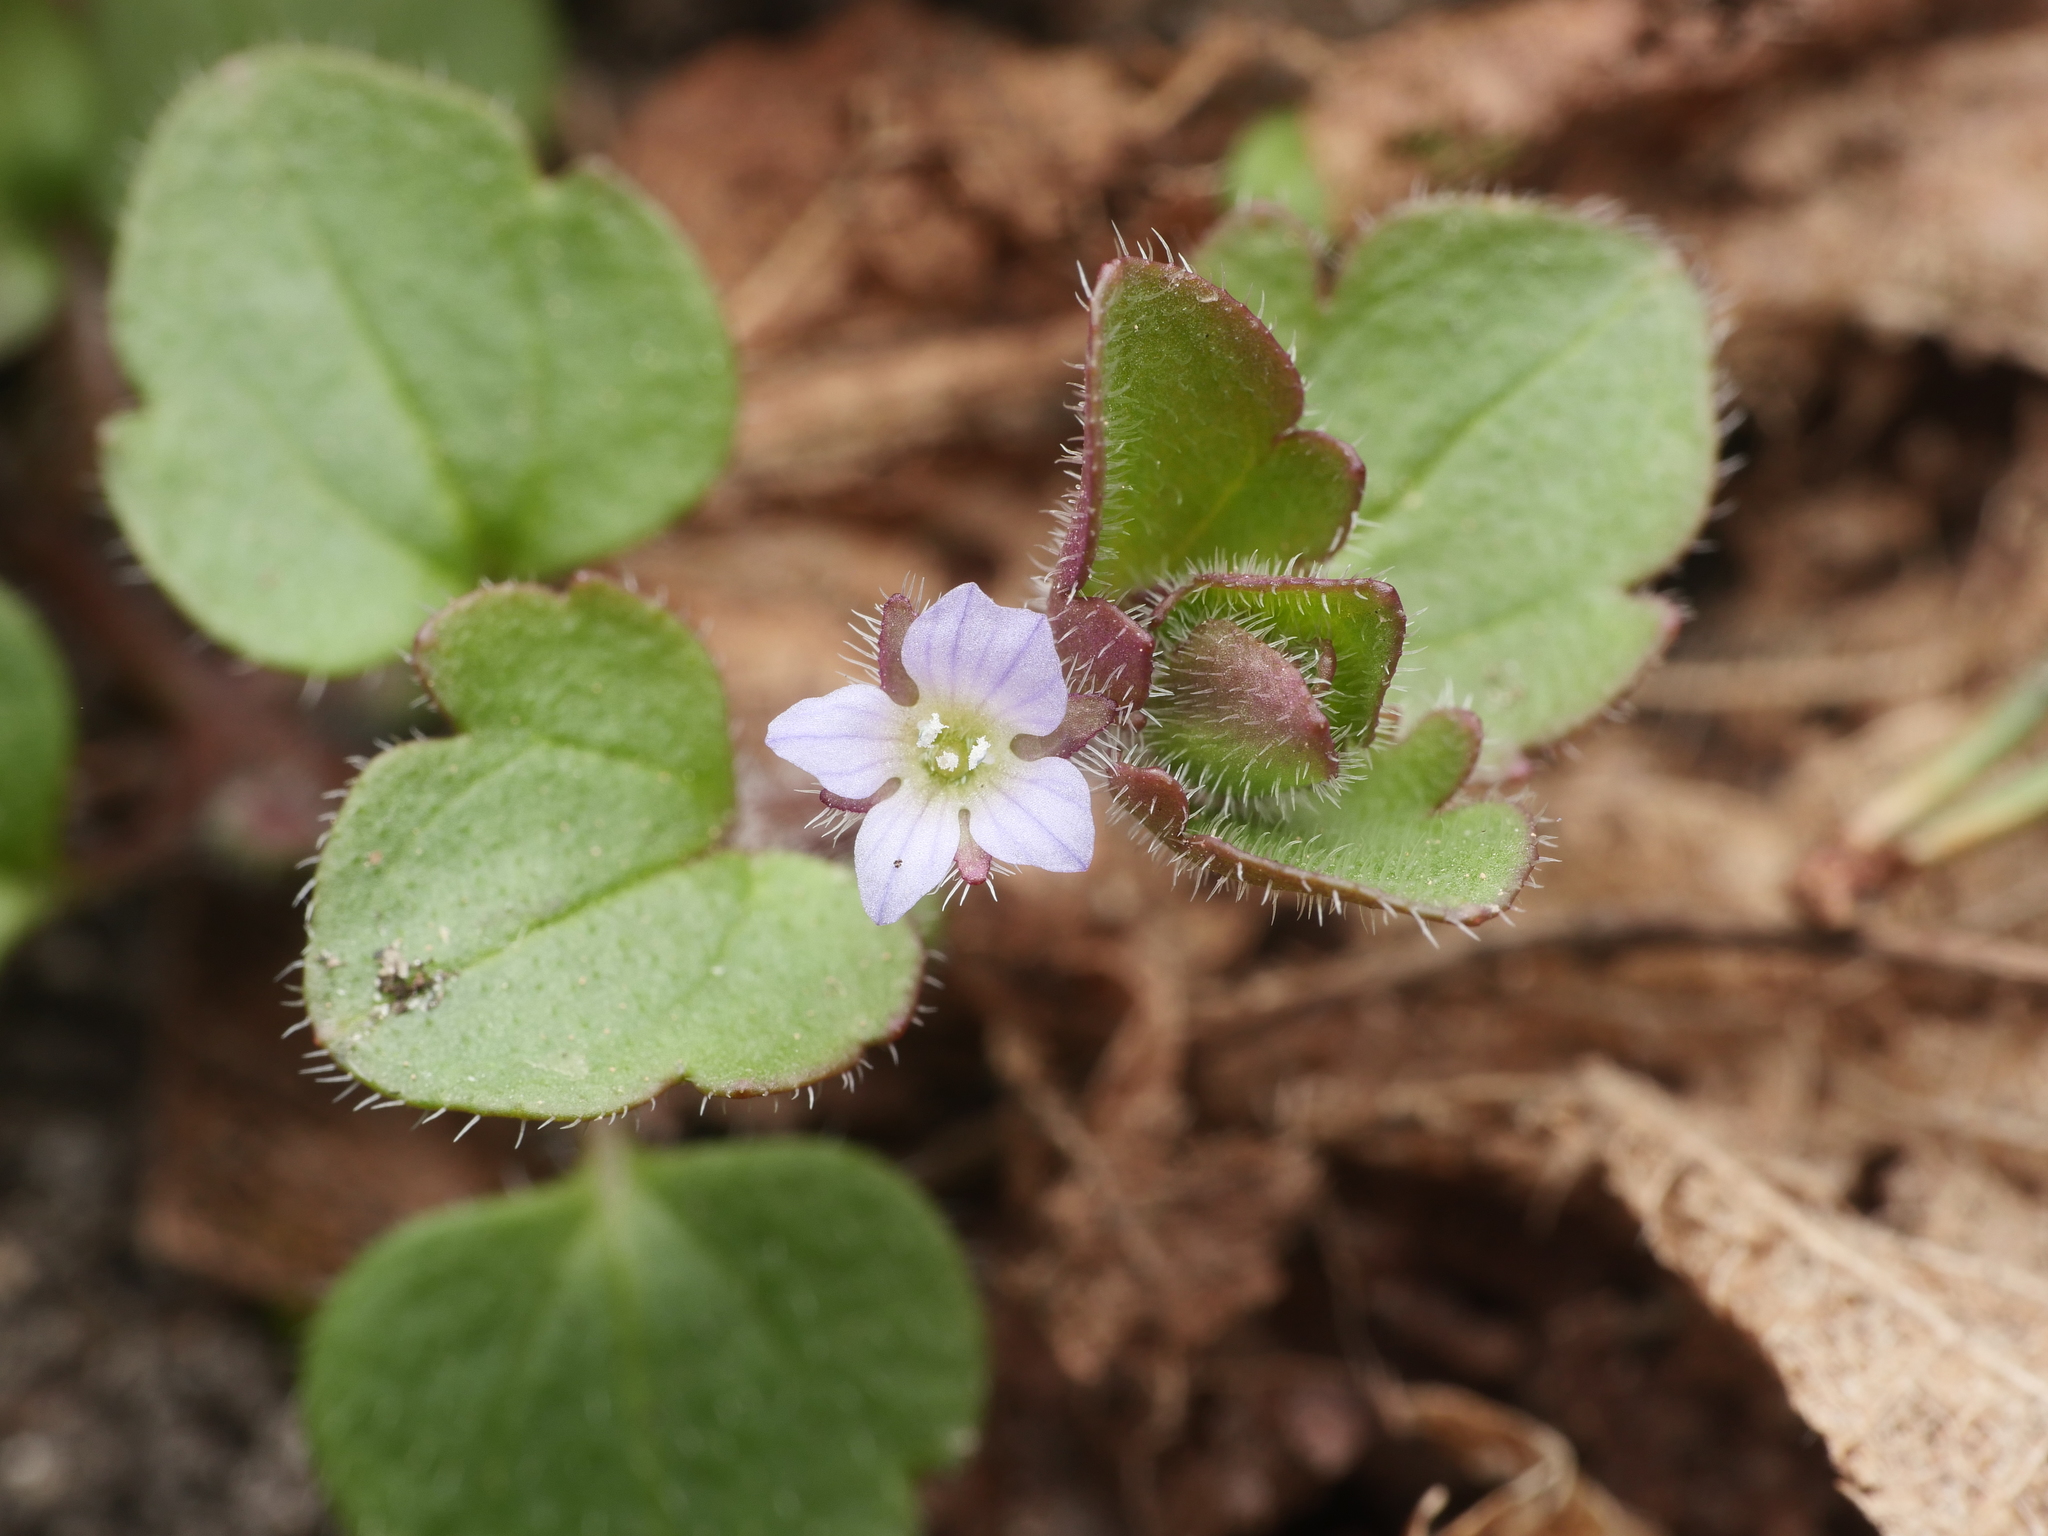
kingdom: Plantae
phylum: Tracheophyta
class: Magnoliopsida
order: Lamiales
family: Plantaginaceae
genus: Veronica
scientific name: Veronica sublobata
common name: False ivy-leaved speedwell
